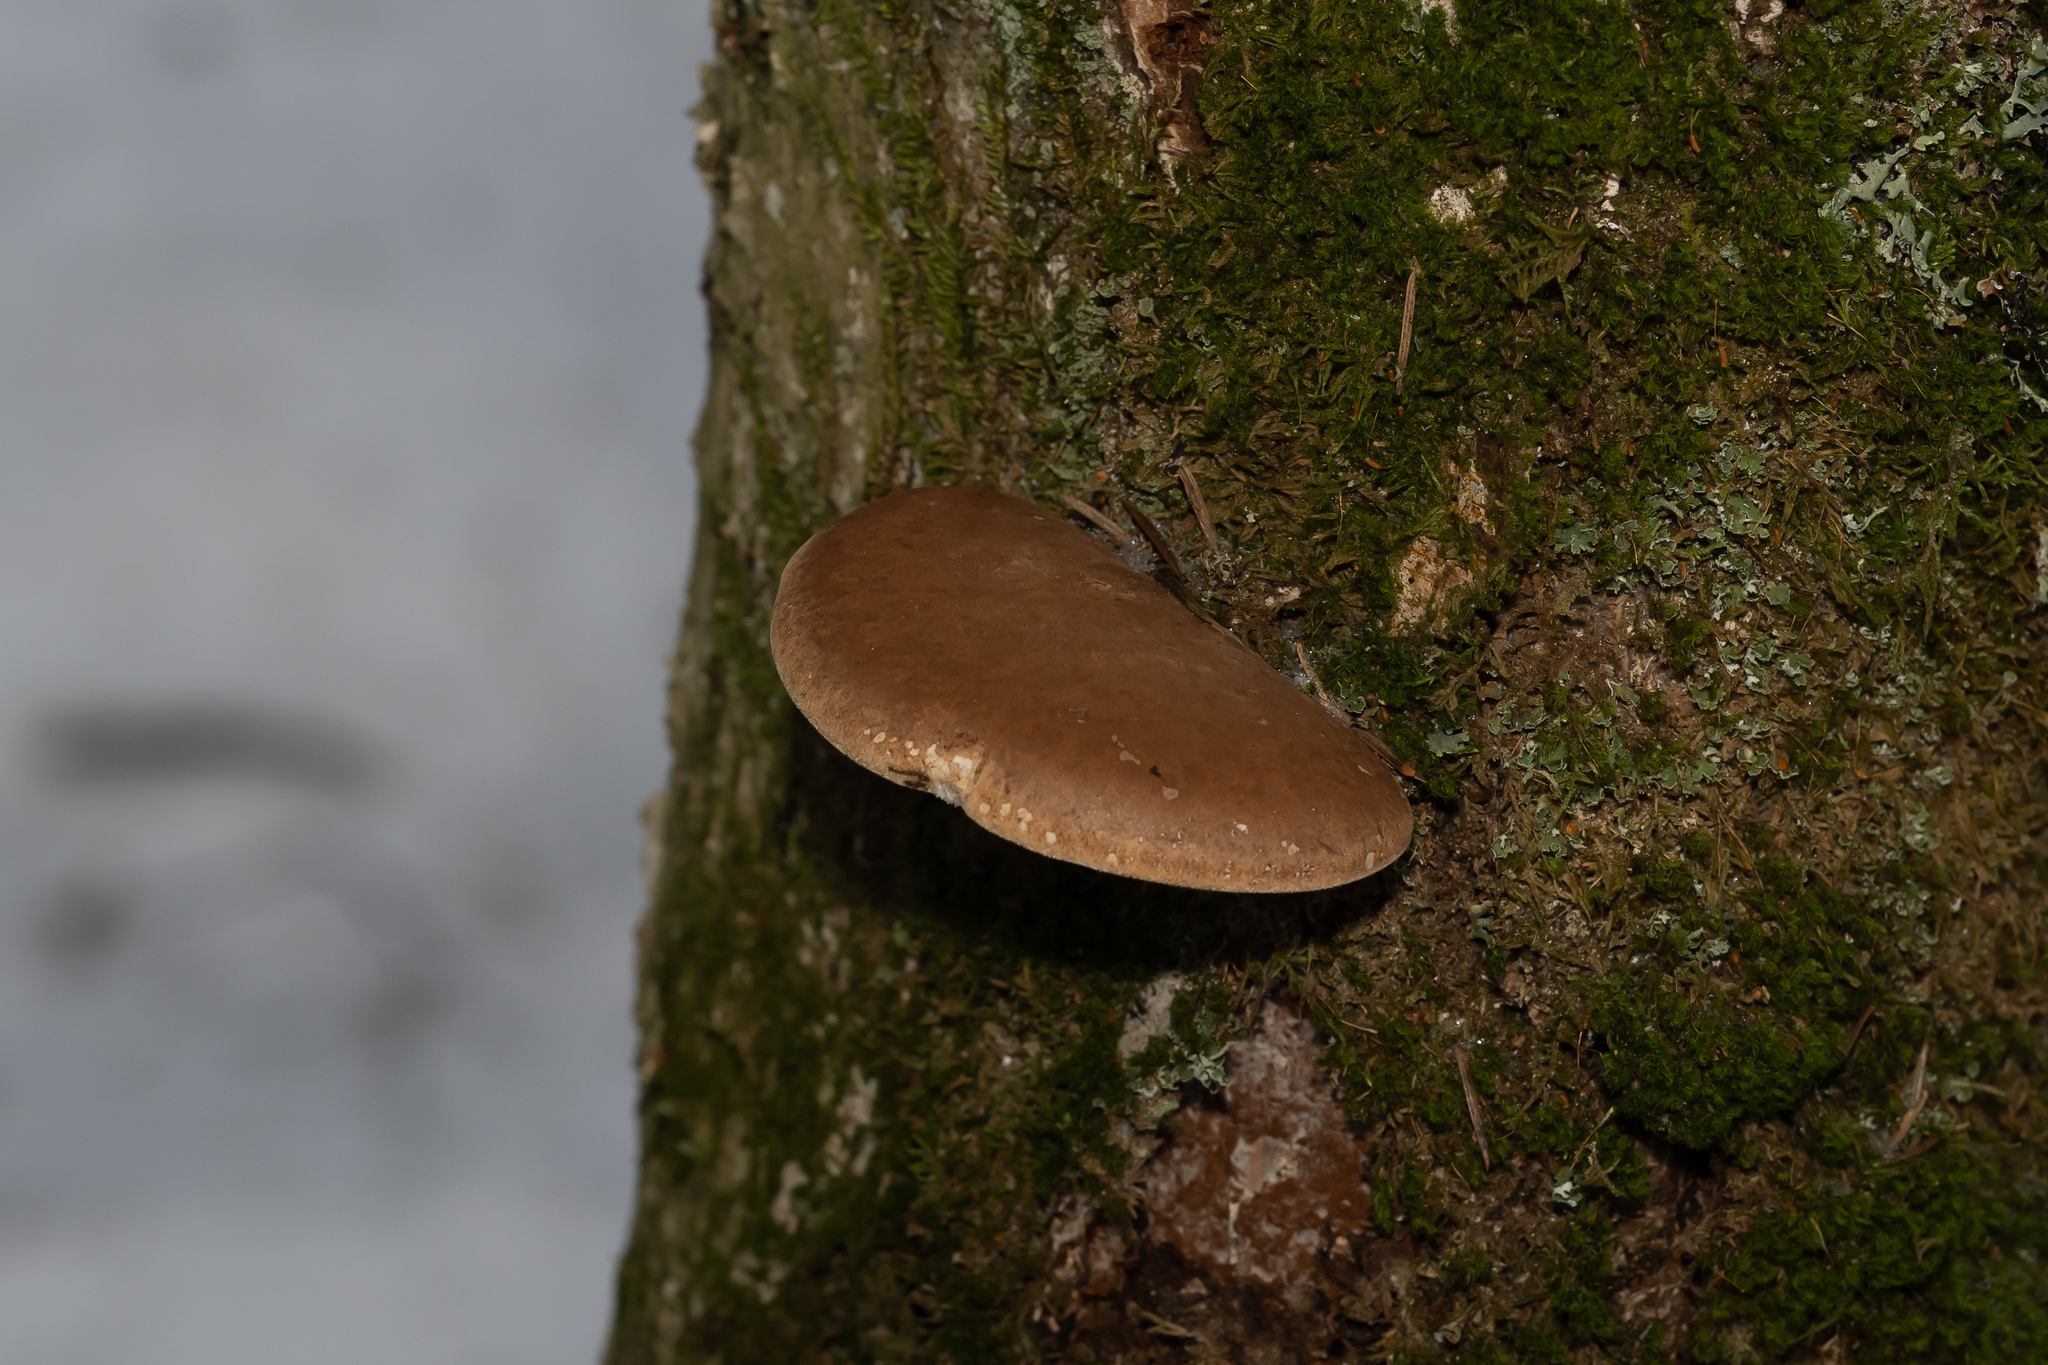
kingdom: Fungi
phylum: Basidiomycota
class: Agaricomycetes
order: Polyporales
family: Fomitopsidaceae
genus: Fomitopsis
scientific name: Fomitopsis betulina
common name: Birch polypore
